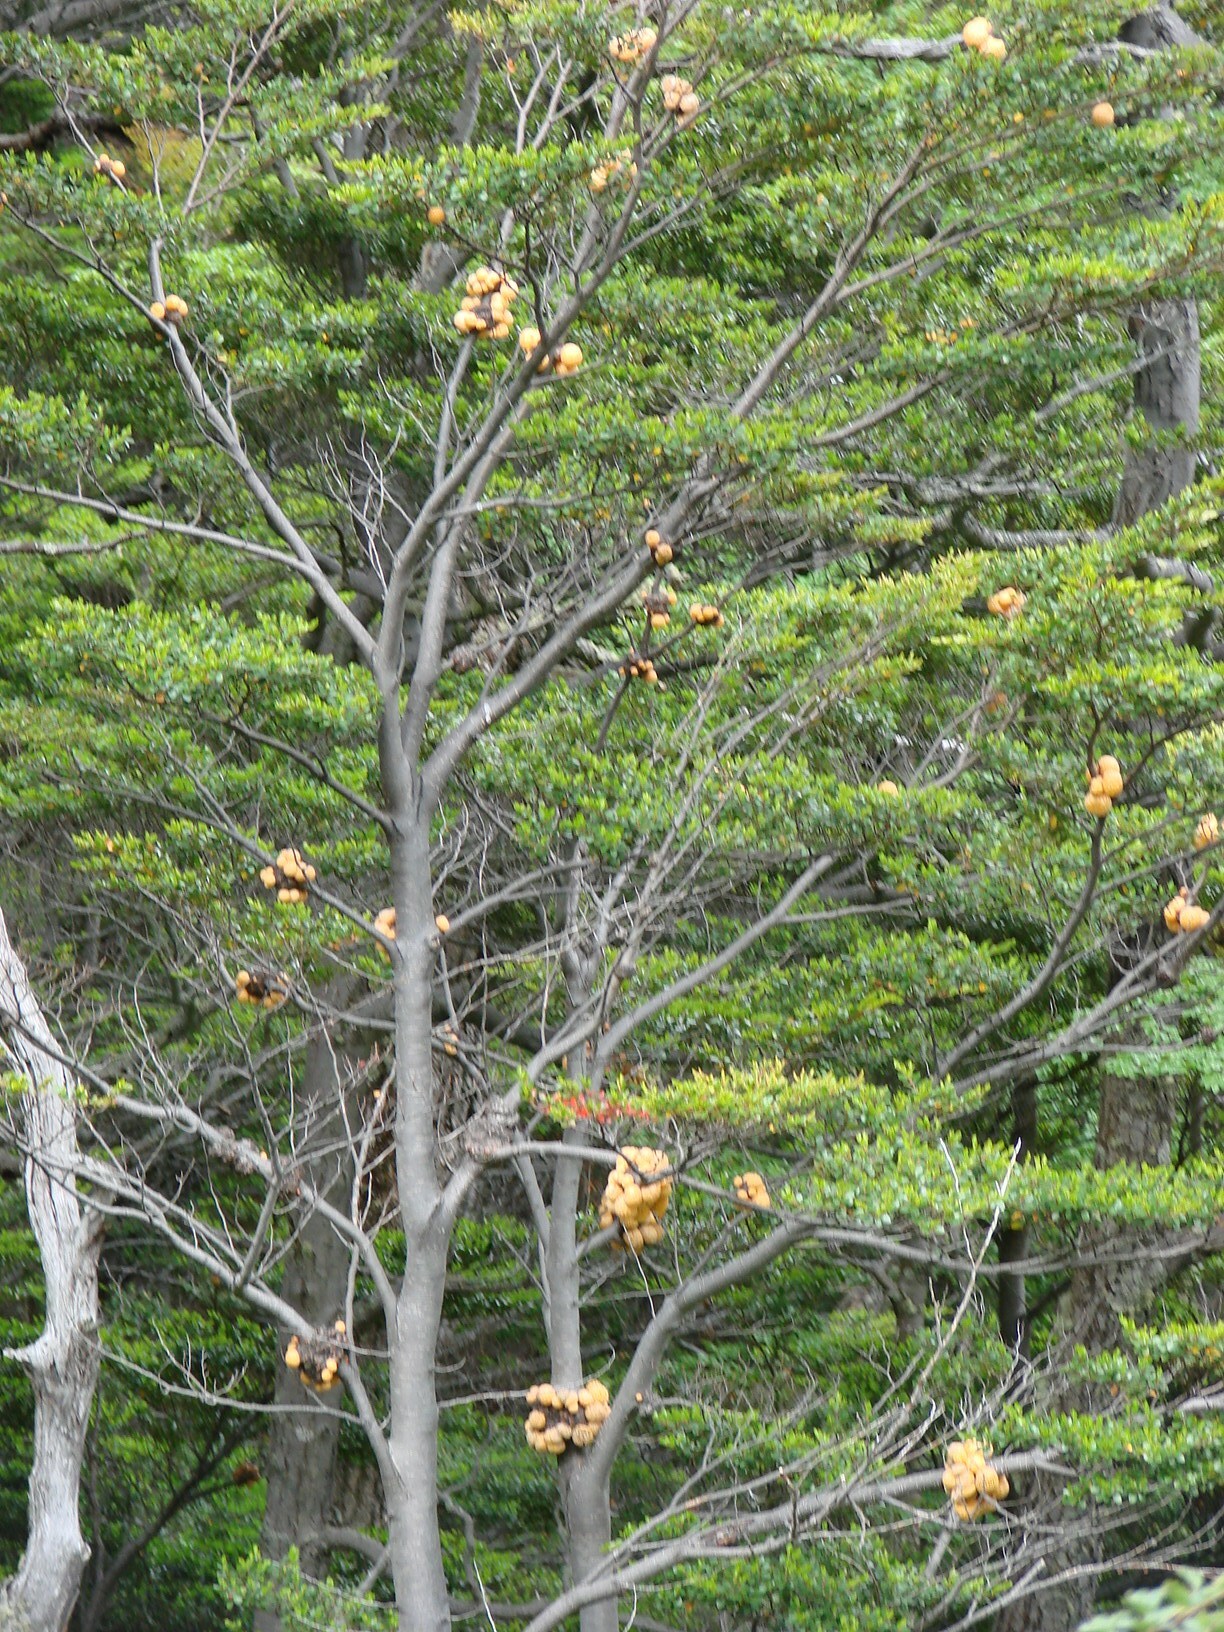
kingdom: Fungi
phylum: Ascomycota
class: Leotiomycetes
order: Cyttariales
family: Cyttariaceae
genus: Cyttaria
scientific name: Cyttaria darwinii
